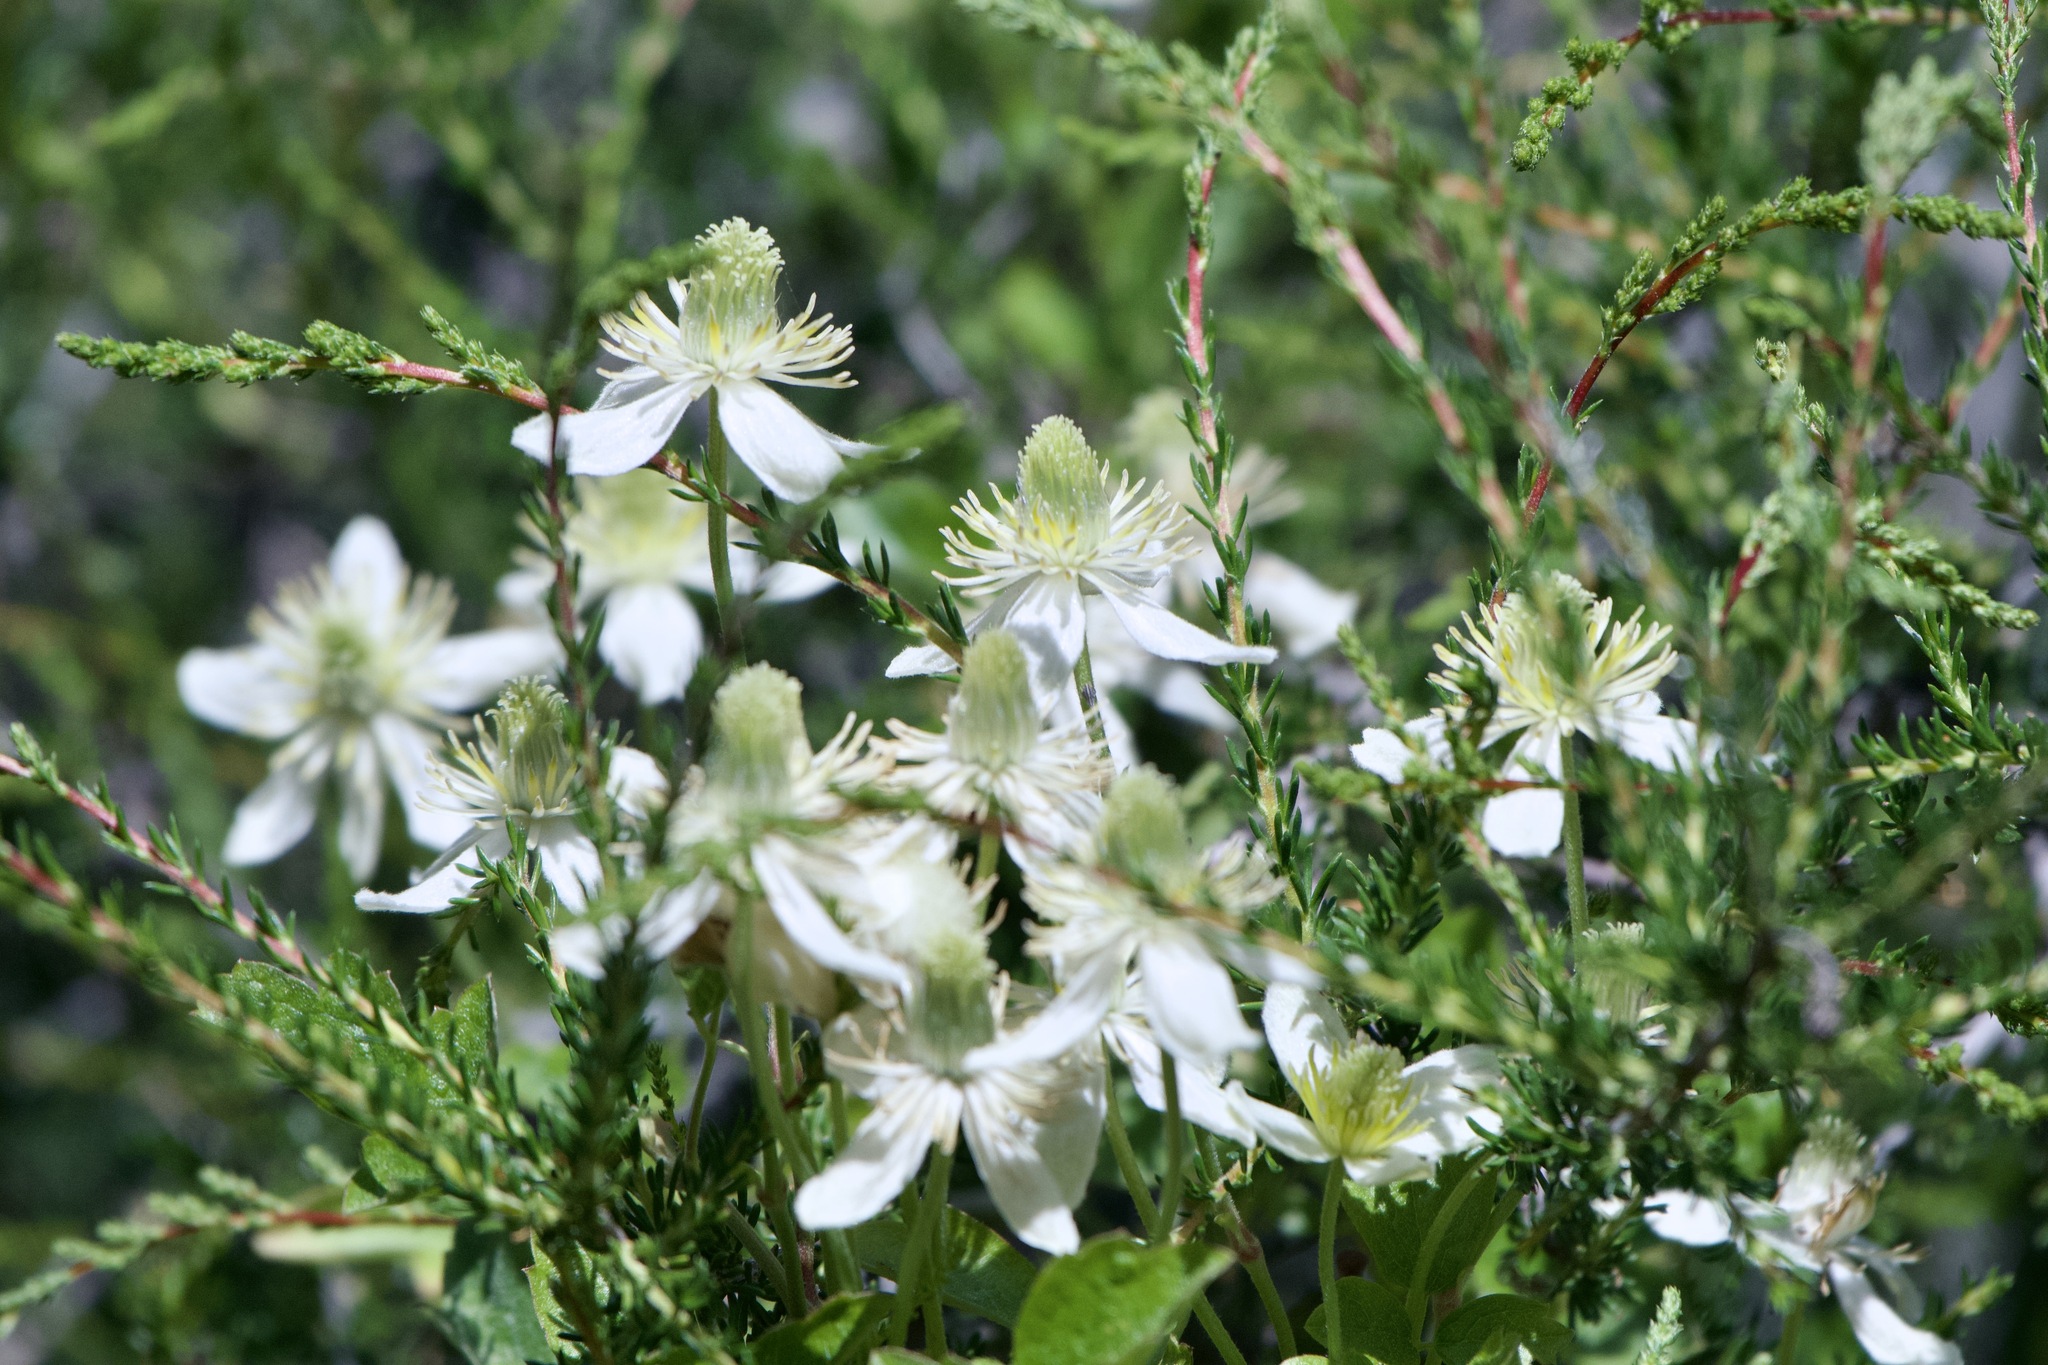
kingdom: Plantae
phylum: Tracheophyta
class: Magnoliopsida
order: Ranunculales
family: Ranunculaceae
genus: Clematis
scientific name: Clematis lasiantha
